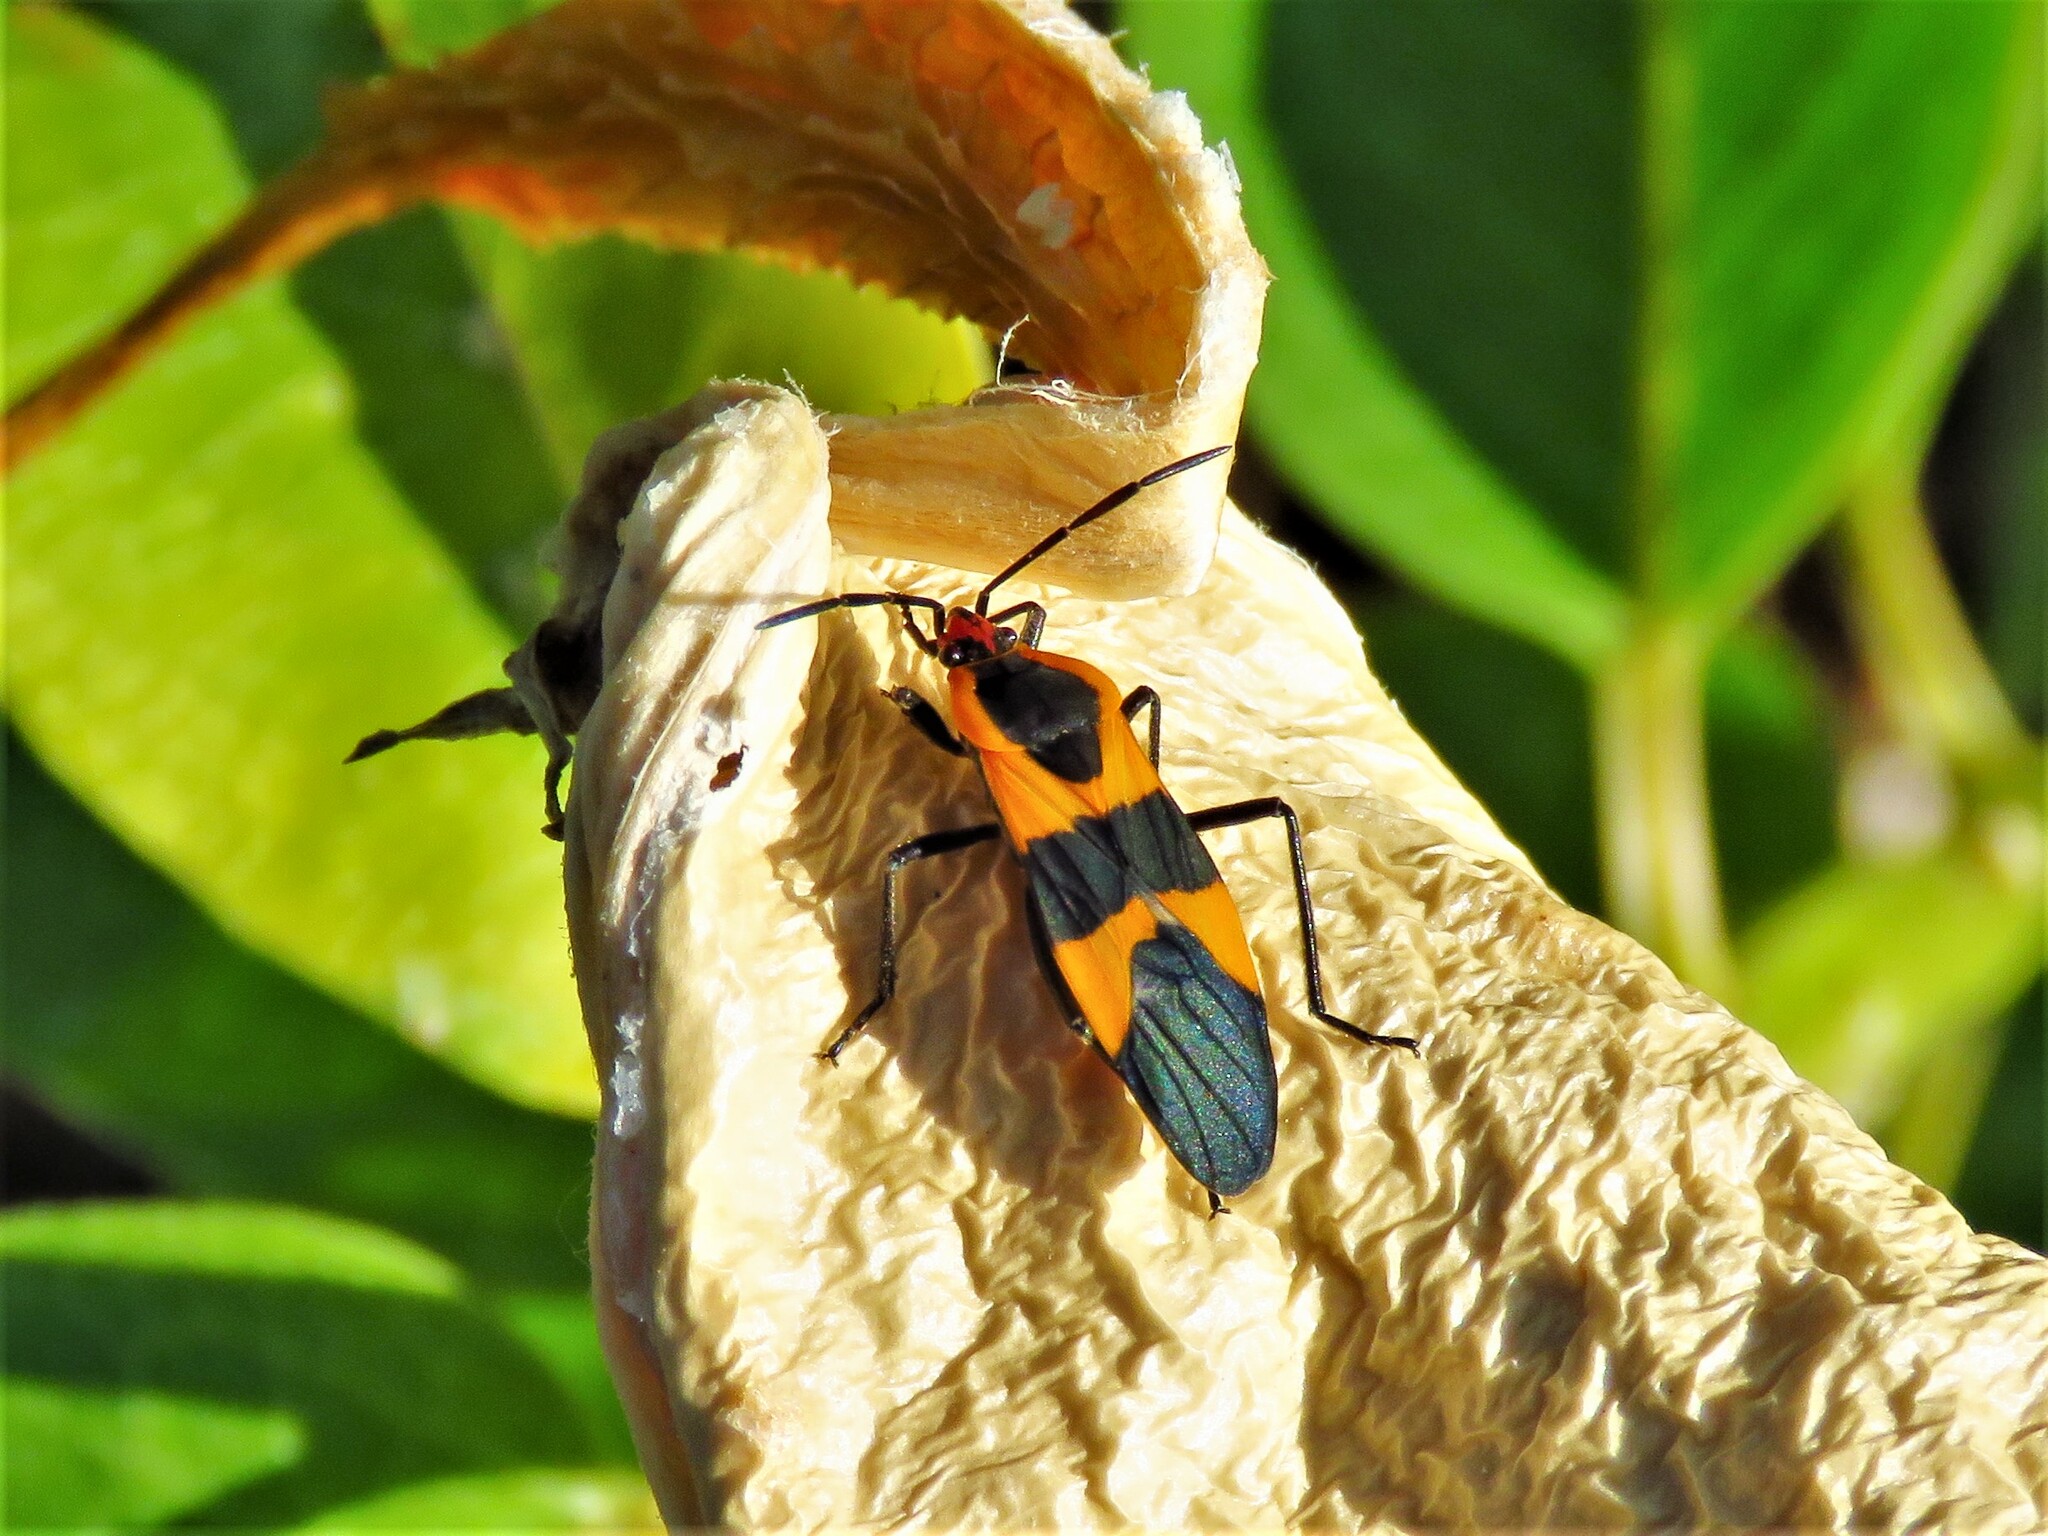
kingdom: Animalia
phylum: Arthropoda
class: Insecta
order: Hemiptera
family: Lygaeidae
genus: Oncopeltus
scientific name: Oncopeltus fasciatus
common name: Large milkweed bug
